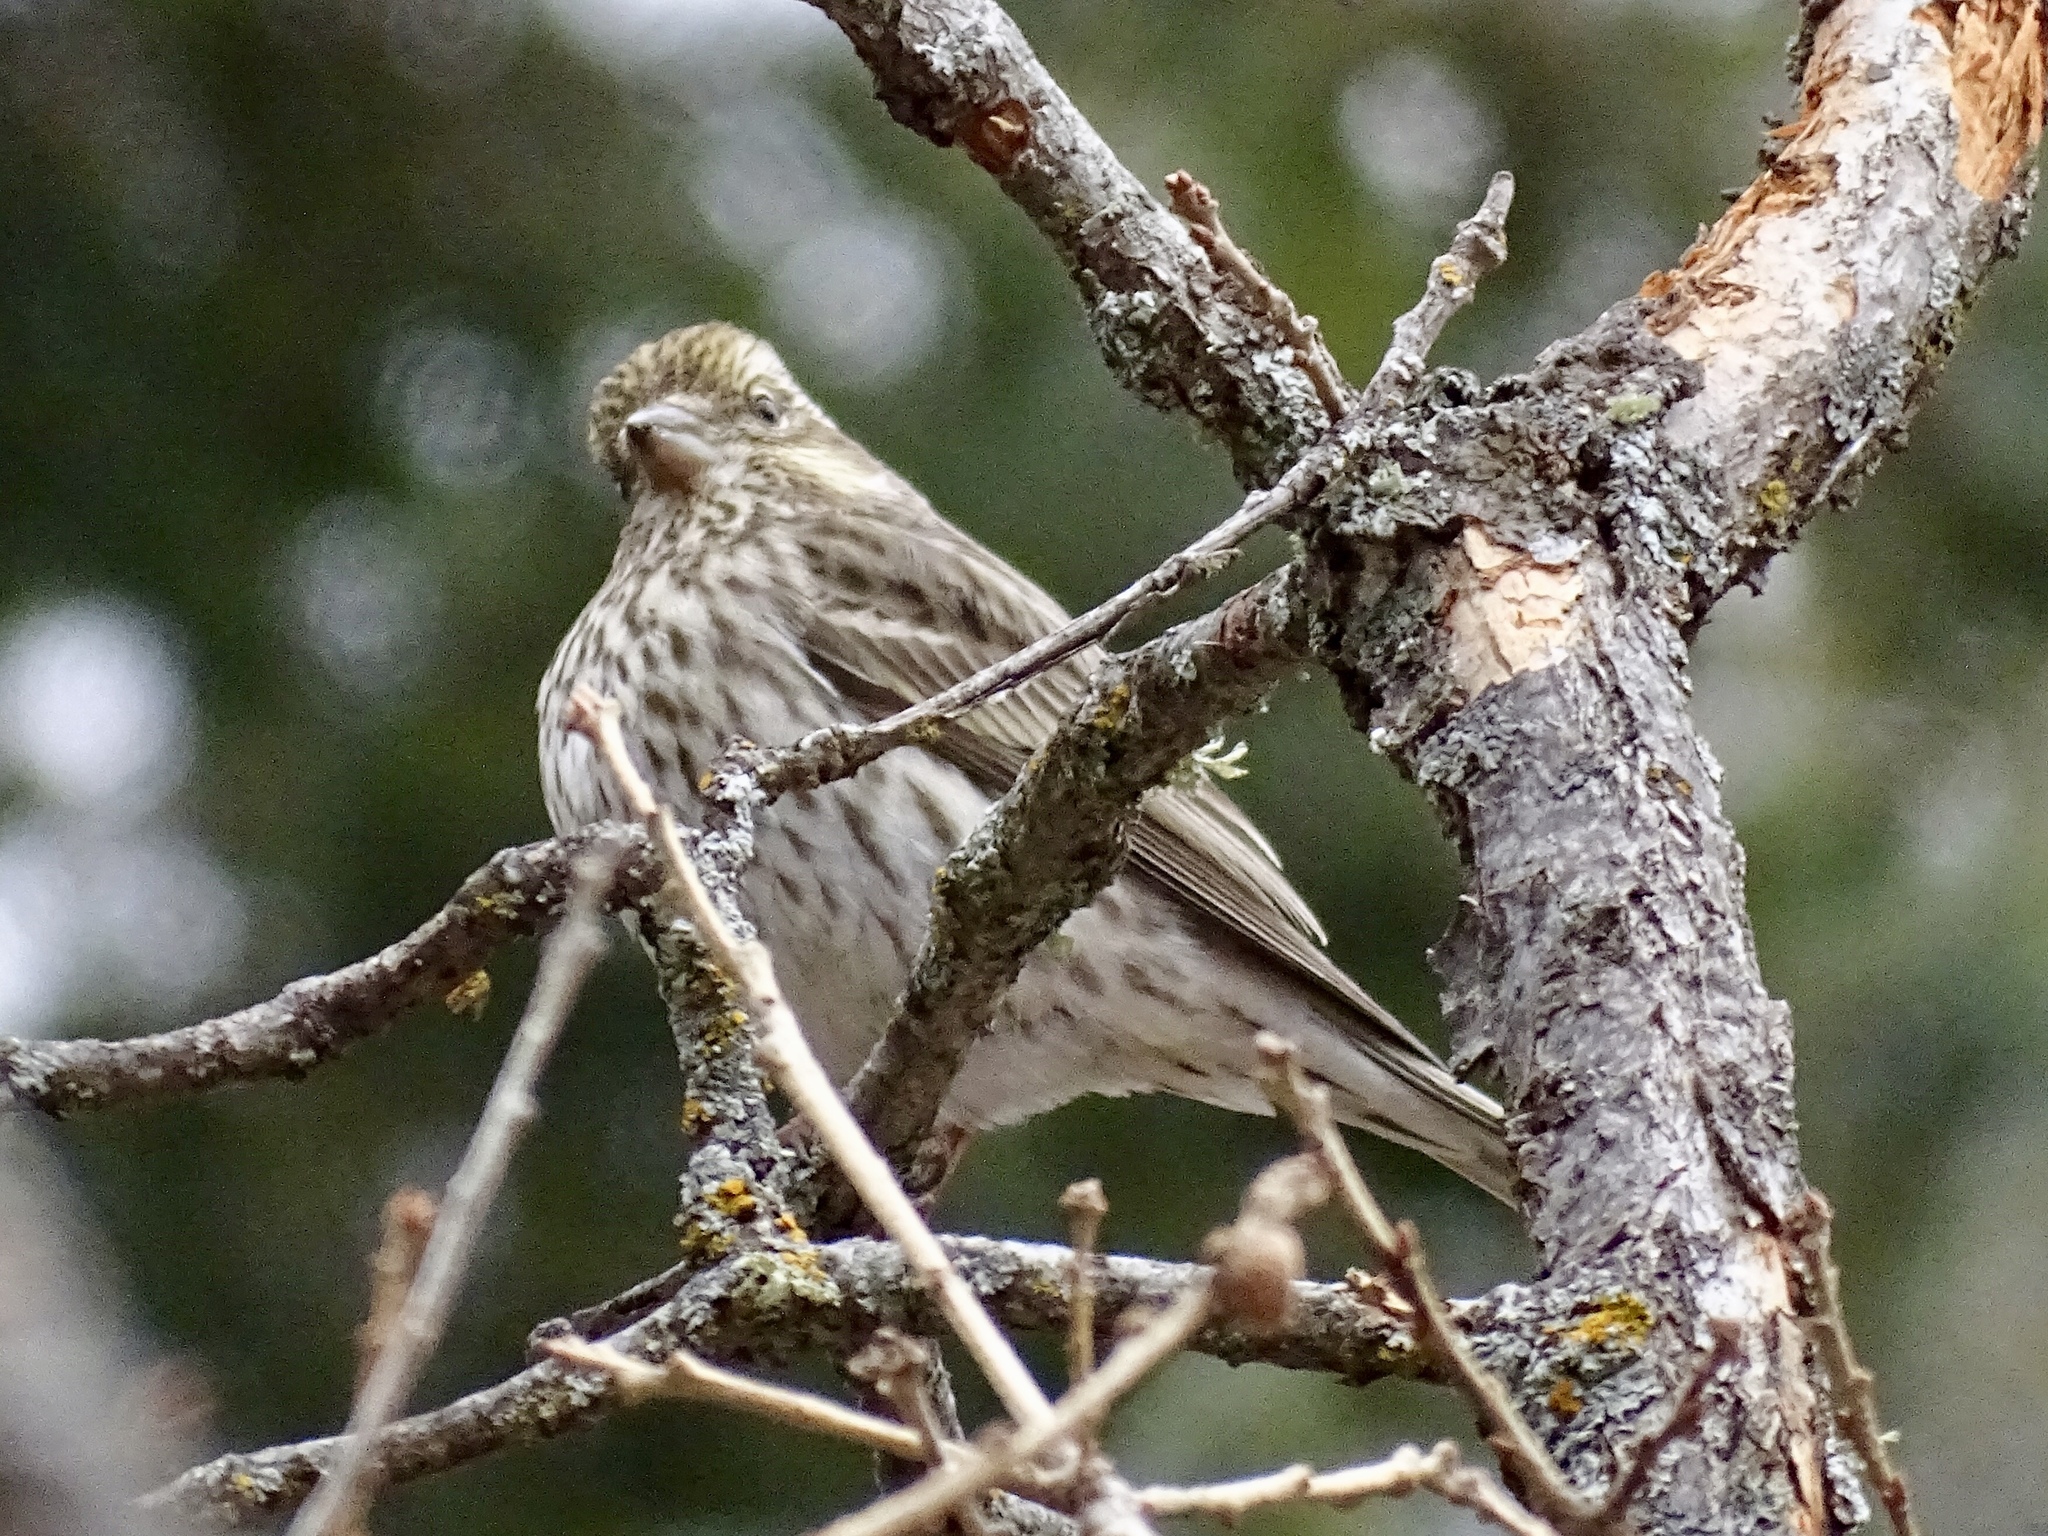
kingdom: Animalia
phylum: Chordata
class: Aves
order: Passeriformes
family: Fringillidae
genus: Haemorhous
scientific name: Haemorhous cassinii
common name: Cassin's finch
